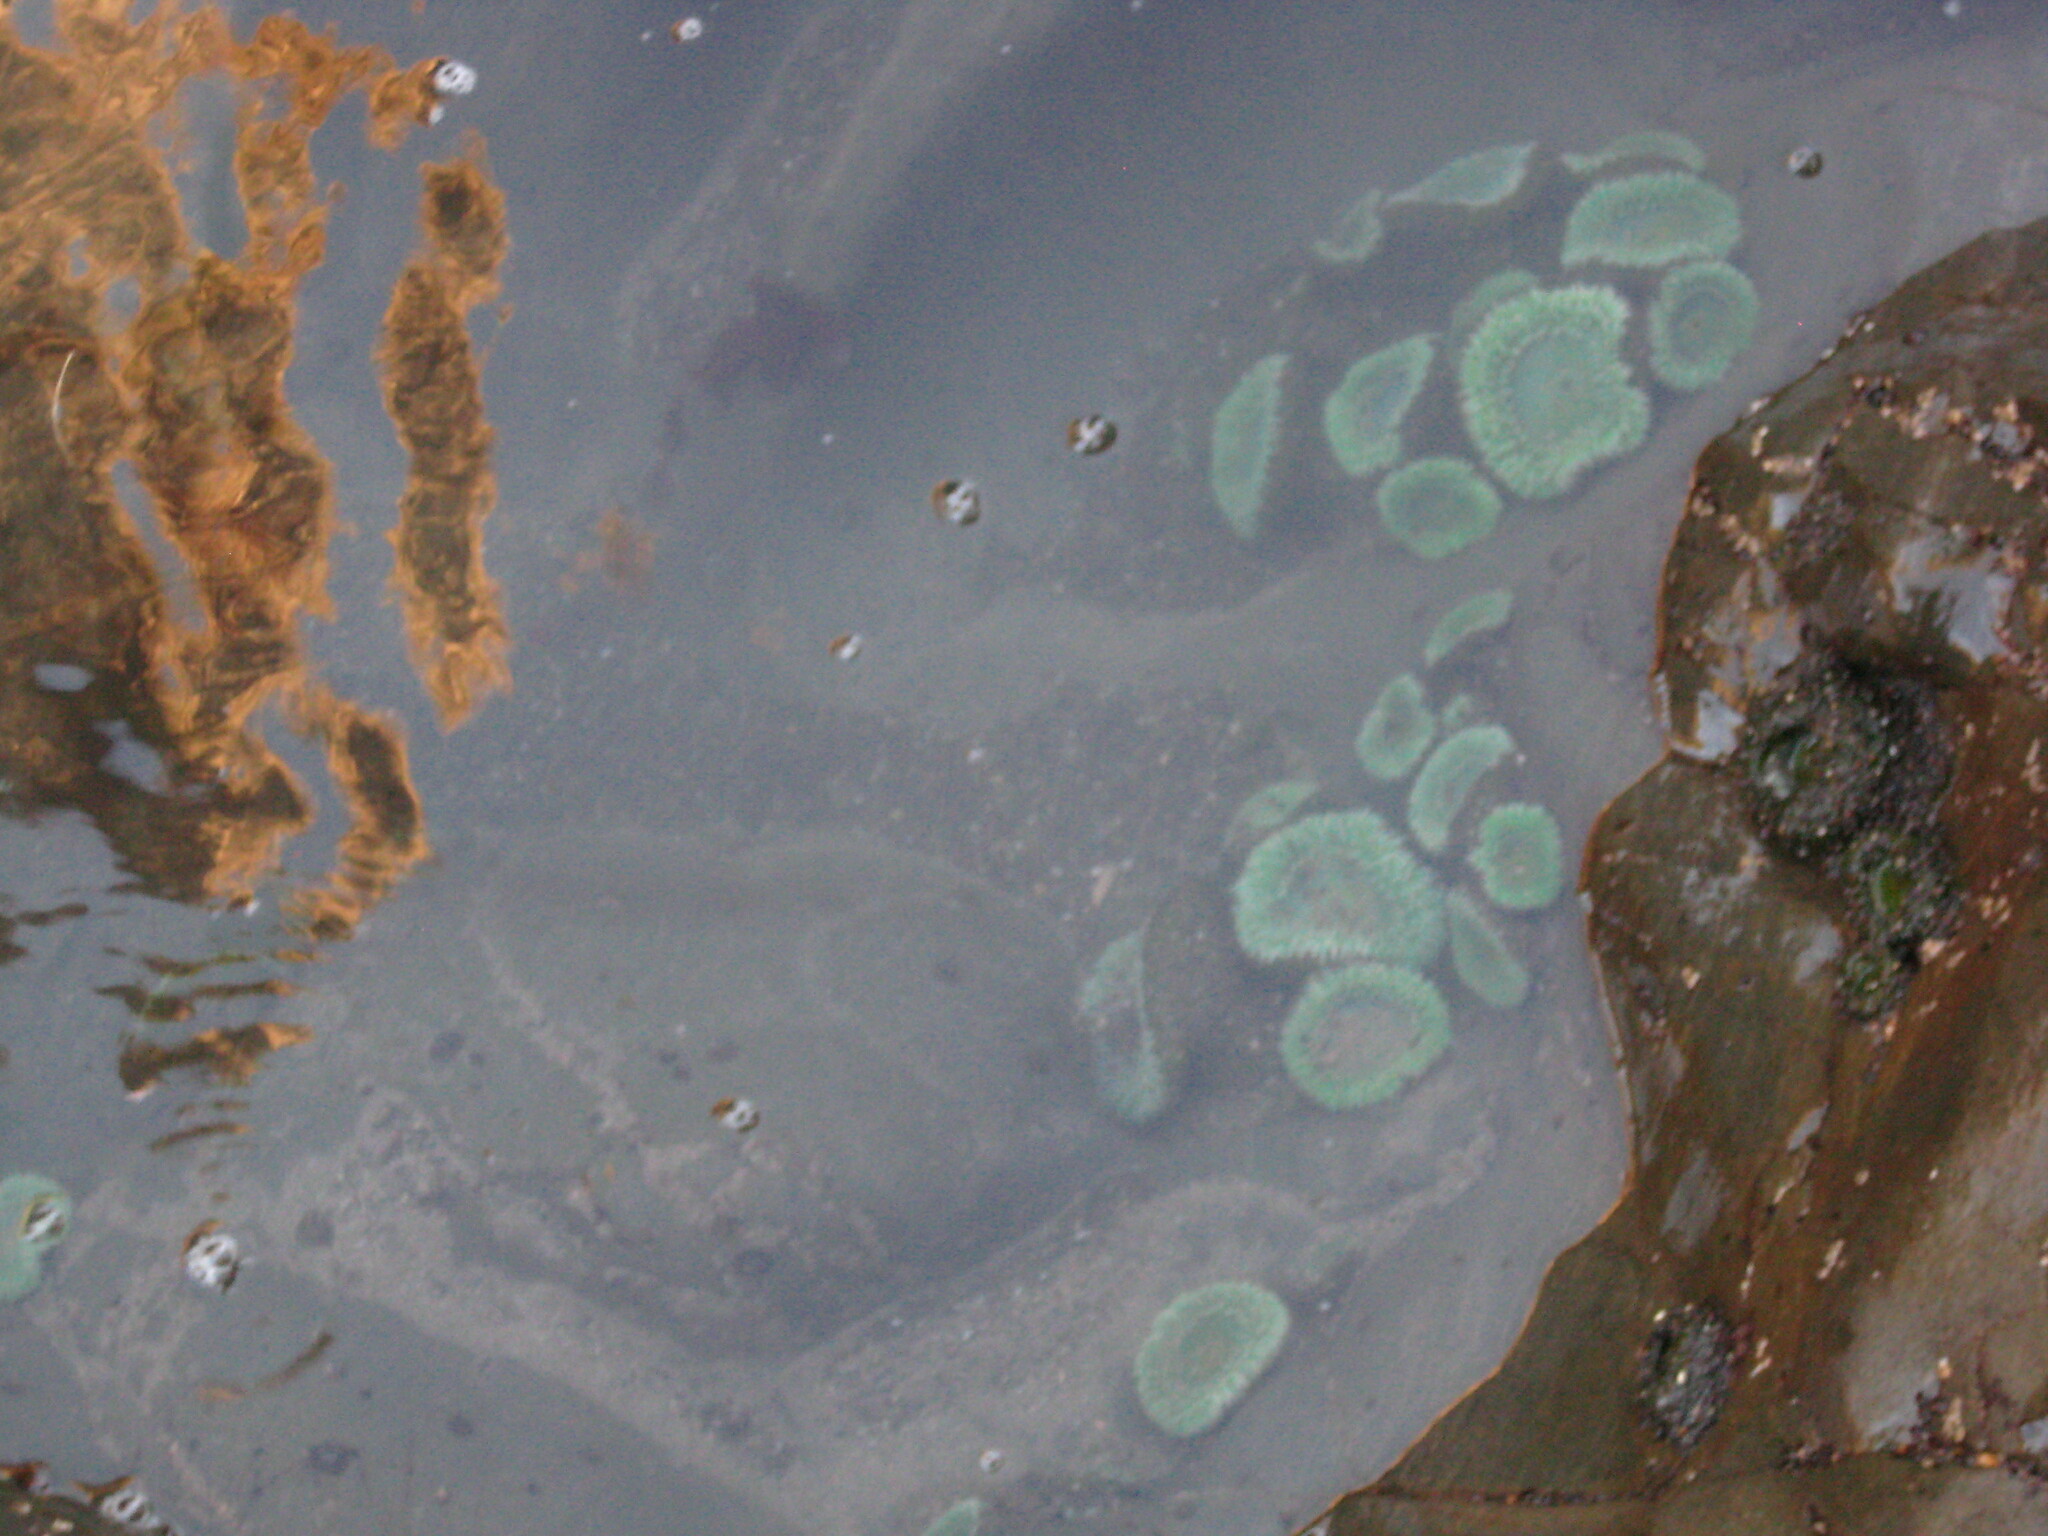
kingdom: Animalia
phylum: Cnidaria
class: Anthozoa
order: Actiniaria
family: Actiniidae
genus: Anthopleura
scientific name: Anthopleura xanthogrammica
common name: Giant green anemone
